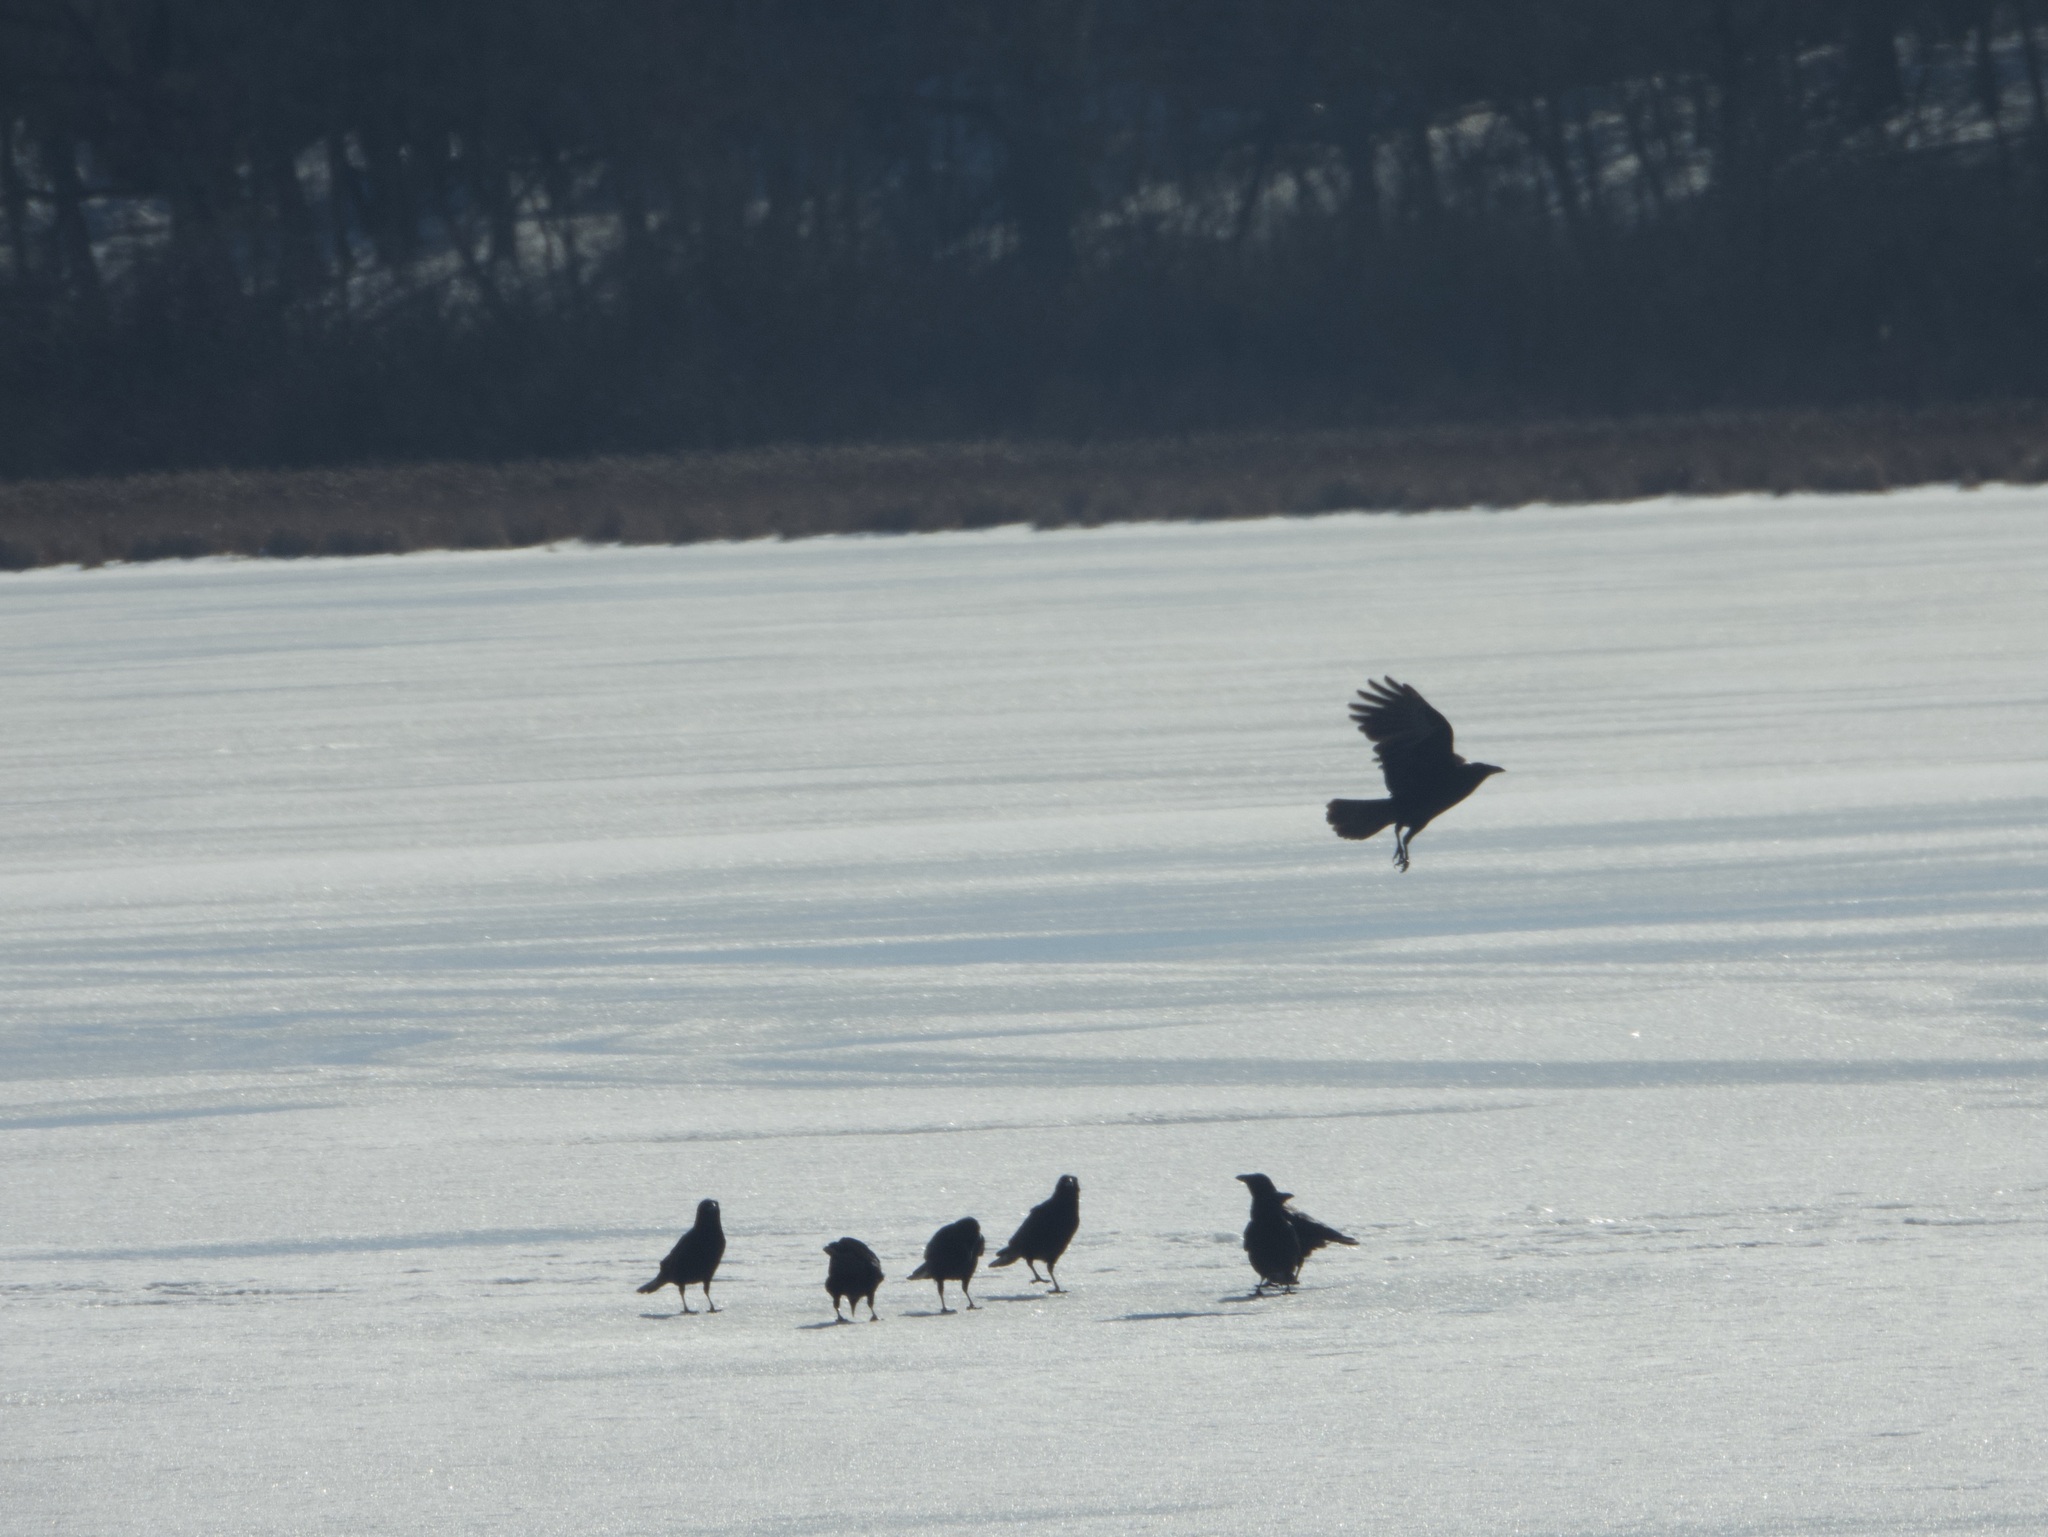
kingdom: Animalia
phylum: Chordata
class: Aves
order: Passeriformes
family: Corvidae
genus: Corvus
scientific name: Corvus brachyrhynchos
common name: American crow
